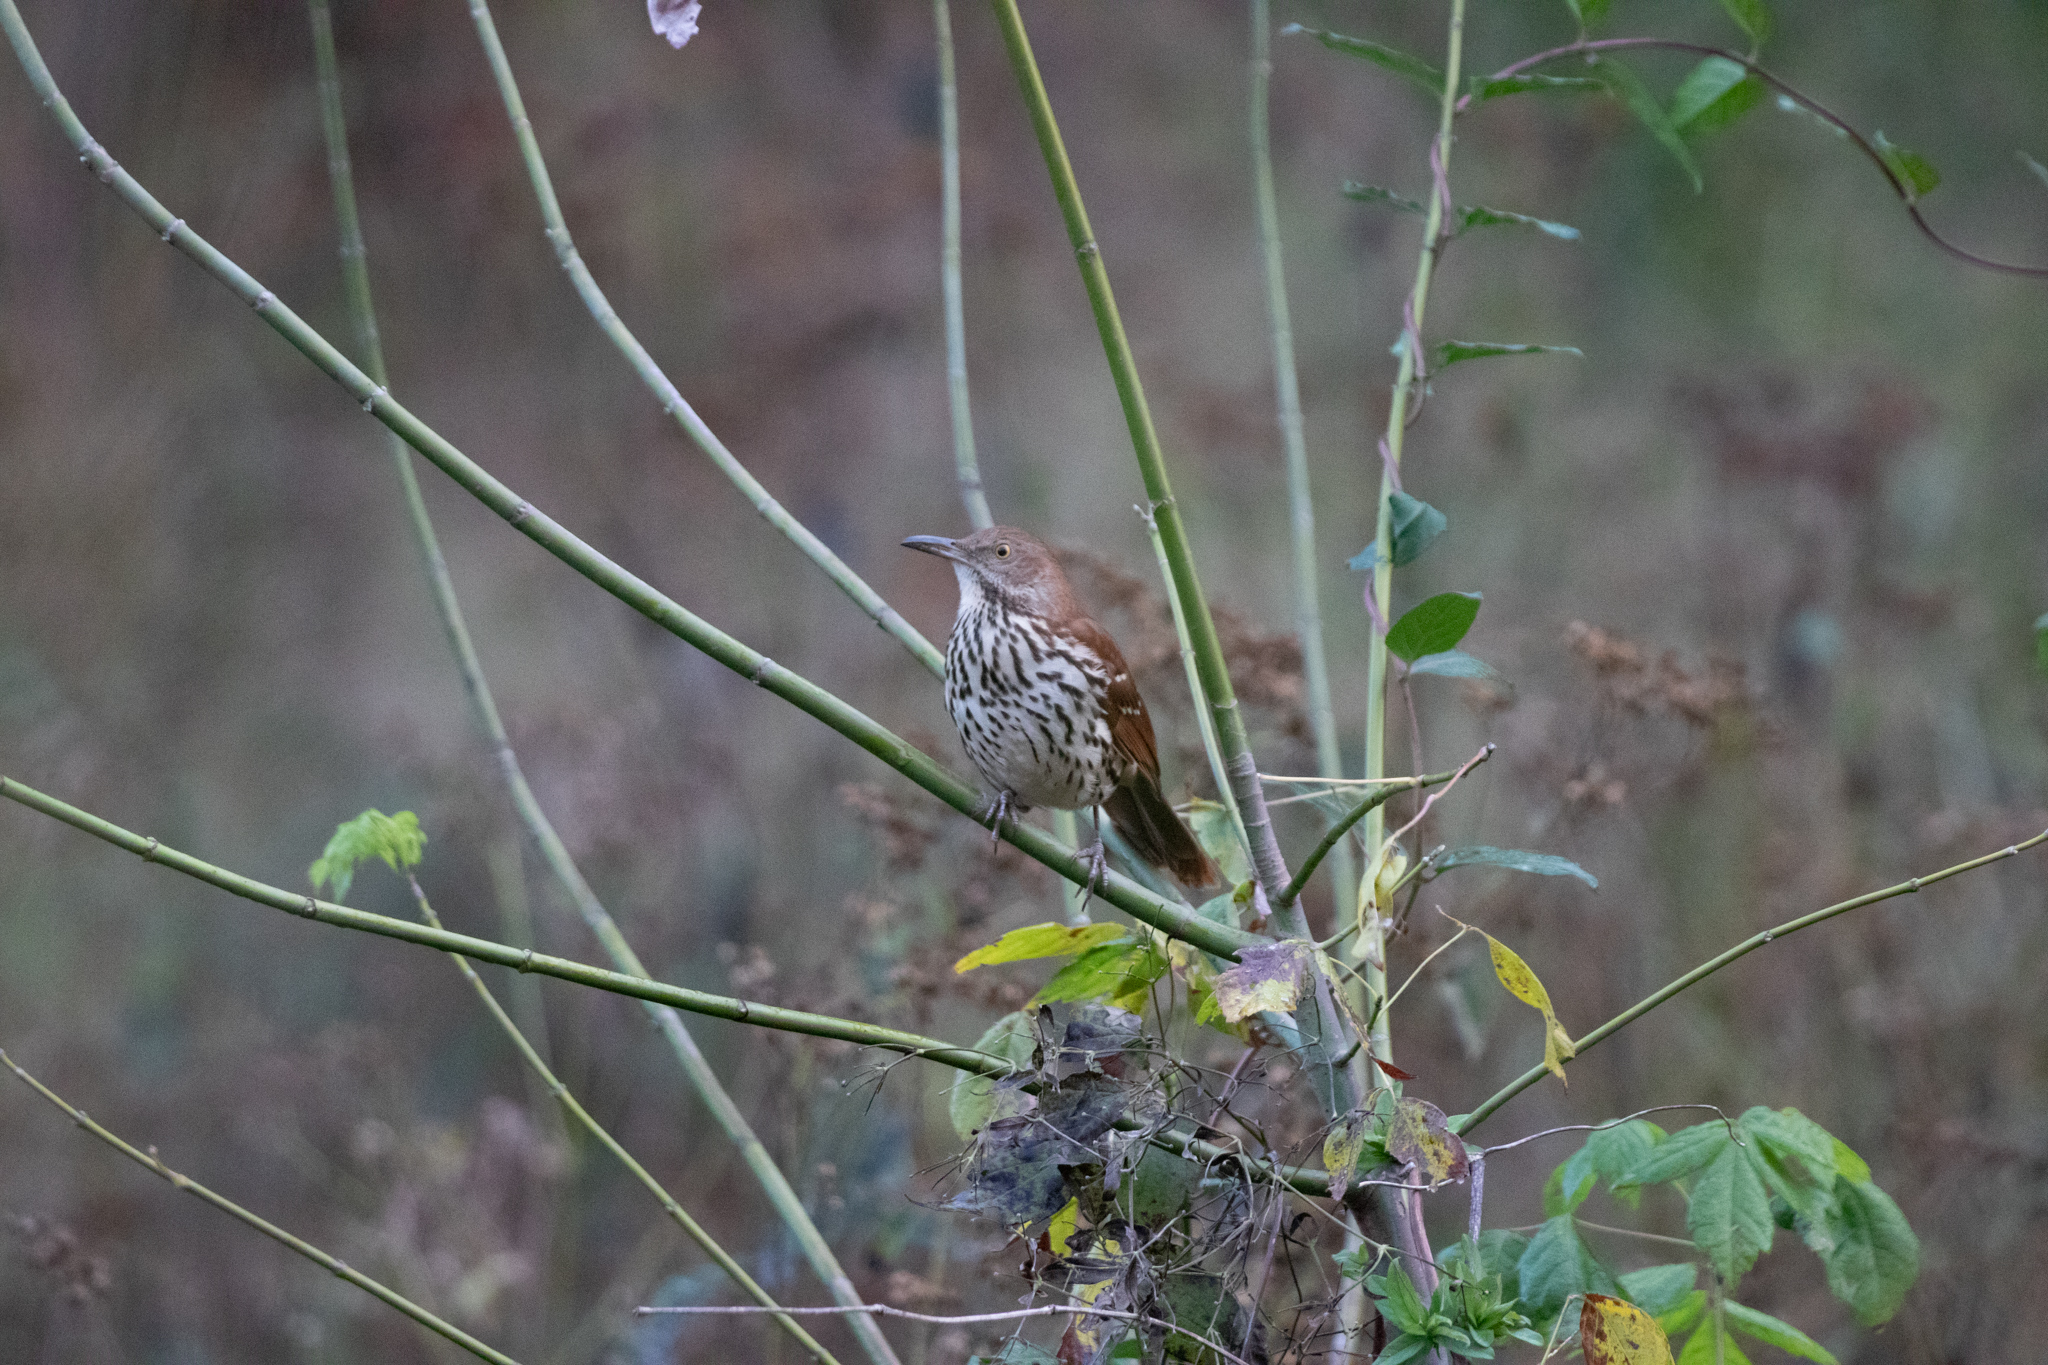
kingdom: Animalia
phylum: Chordata
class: Aves
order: Passeriformes
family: Mimidae
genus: Toxostoma
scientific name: Toxostoma rufum
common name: Brown thrasher
